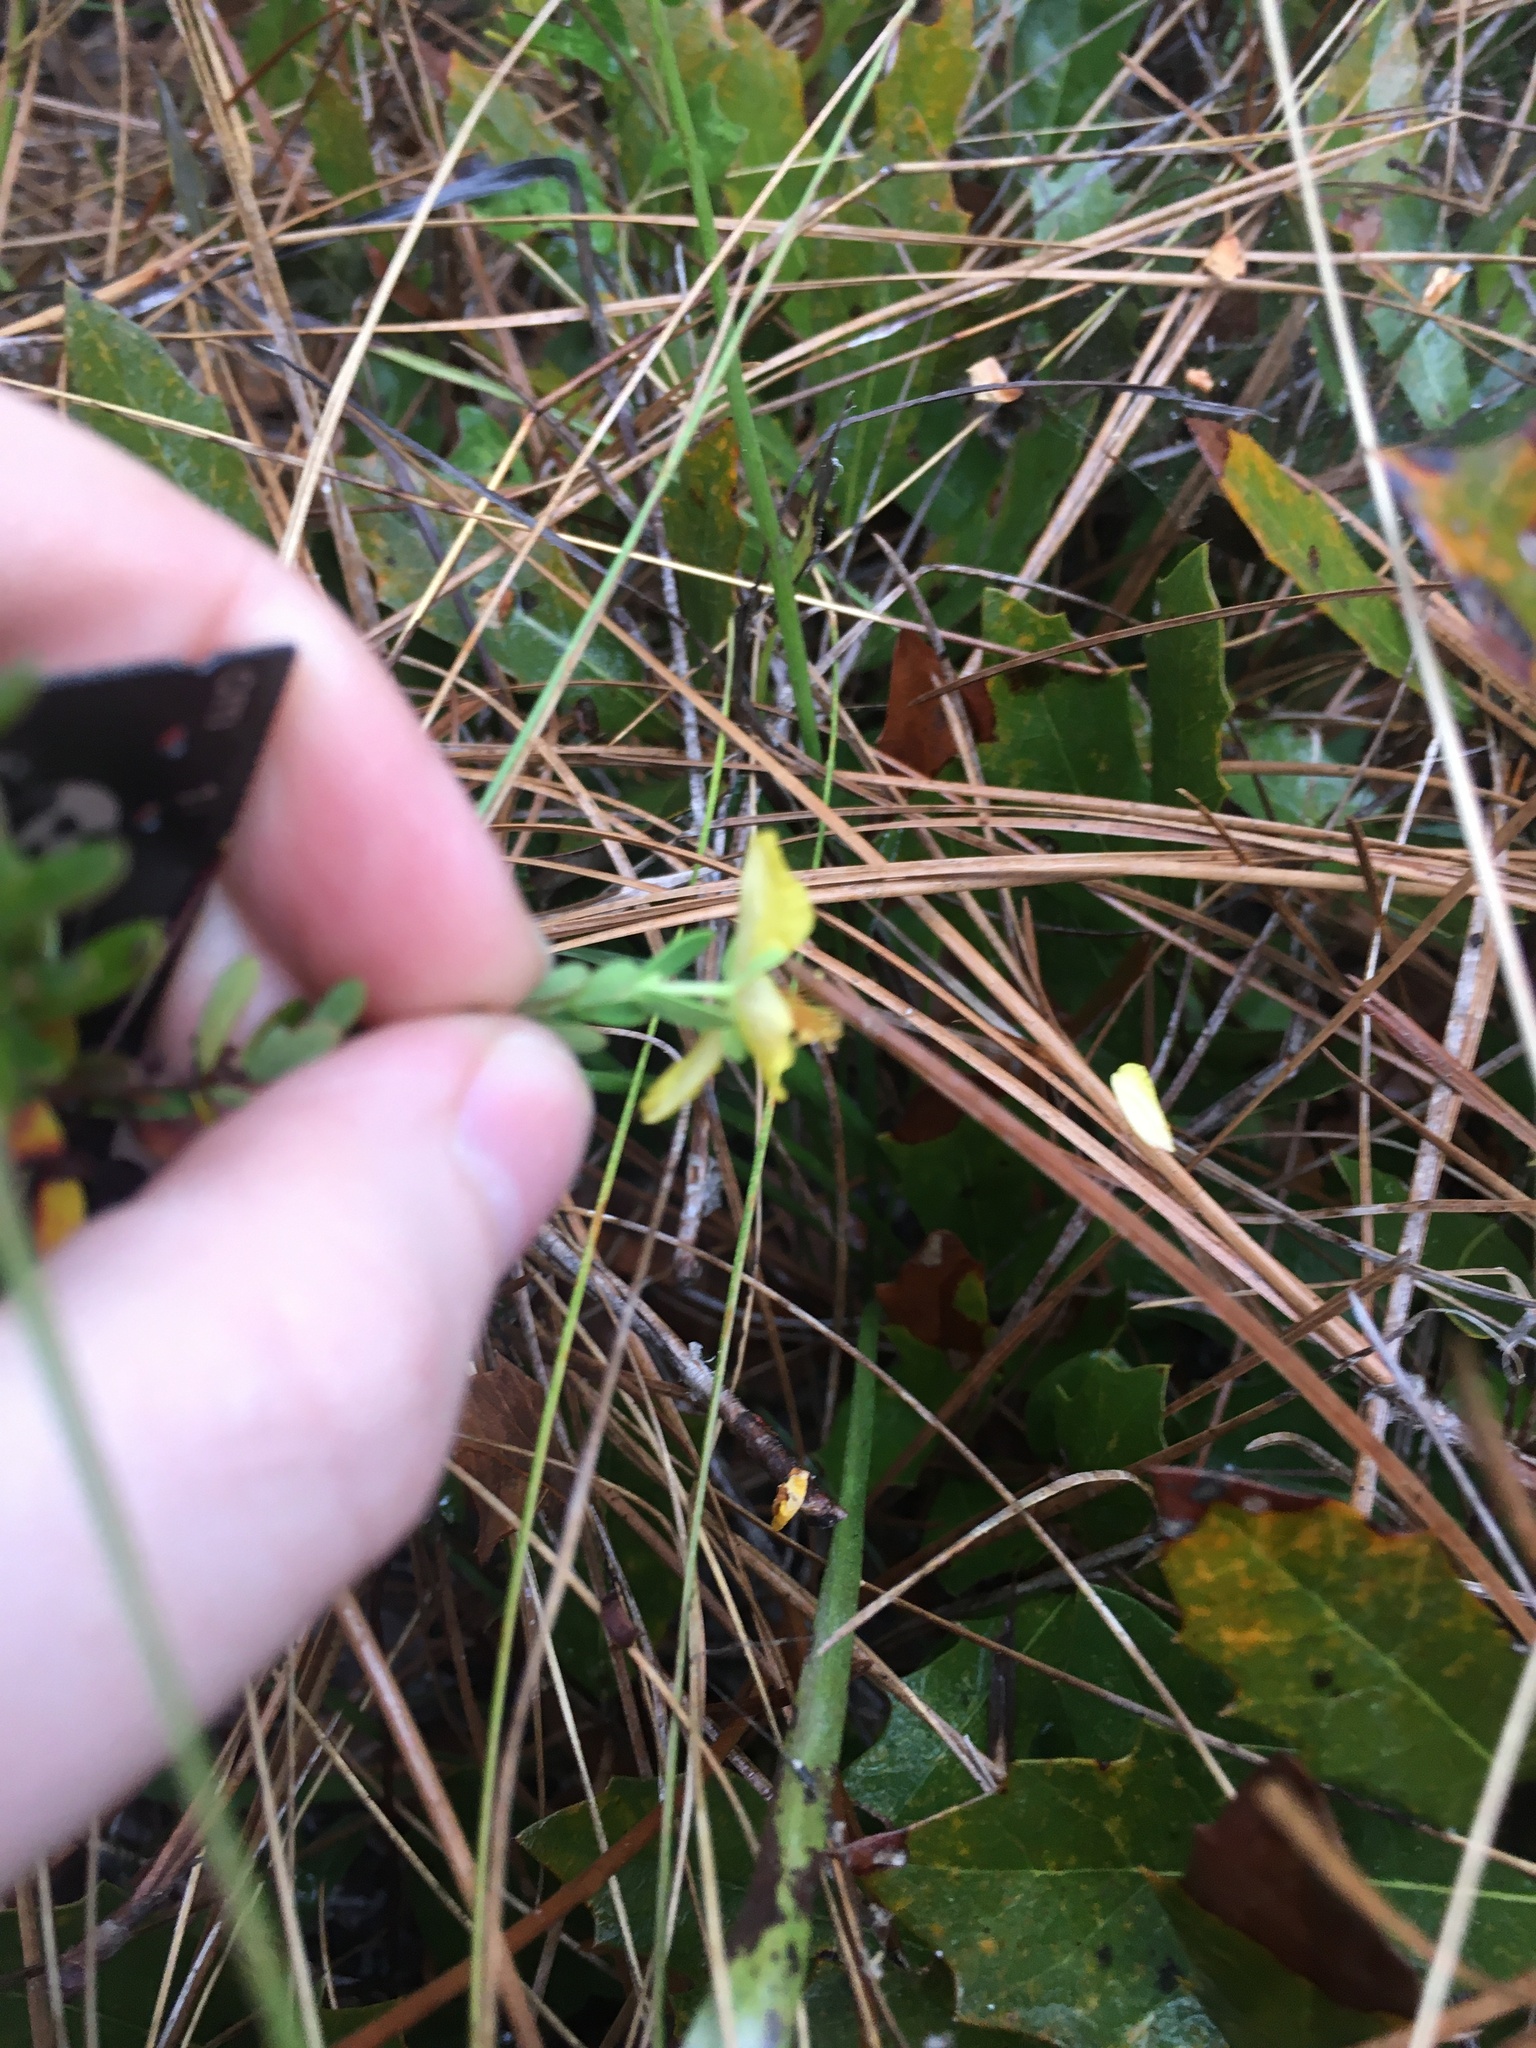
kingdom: Plantae
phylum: Tracheophyta
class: Magnoliopsida
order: Malpighiales
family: Hypericaceae
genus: Hypericum
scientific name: Hypericum microsepalum
